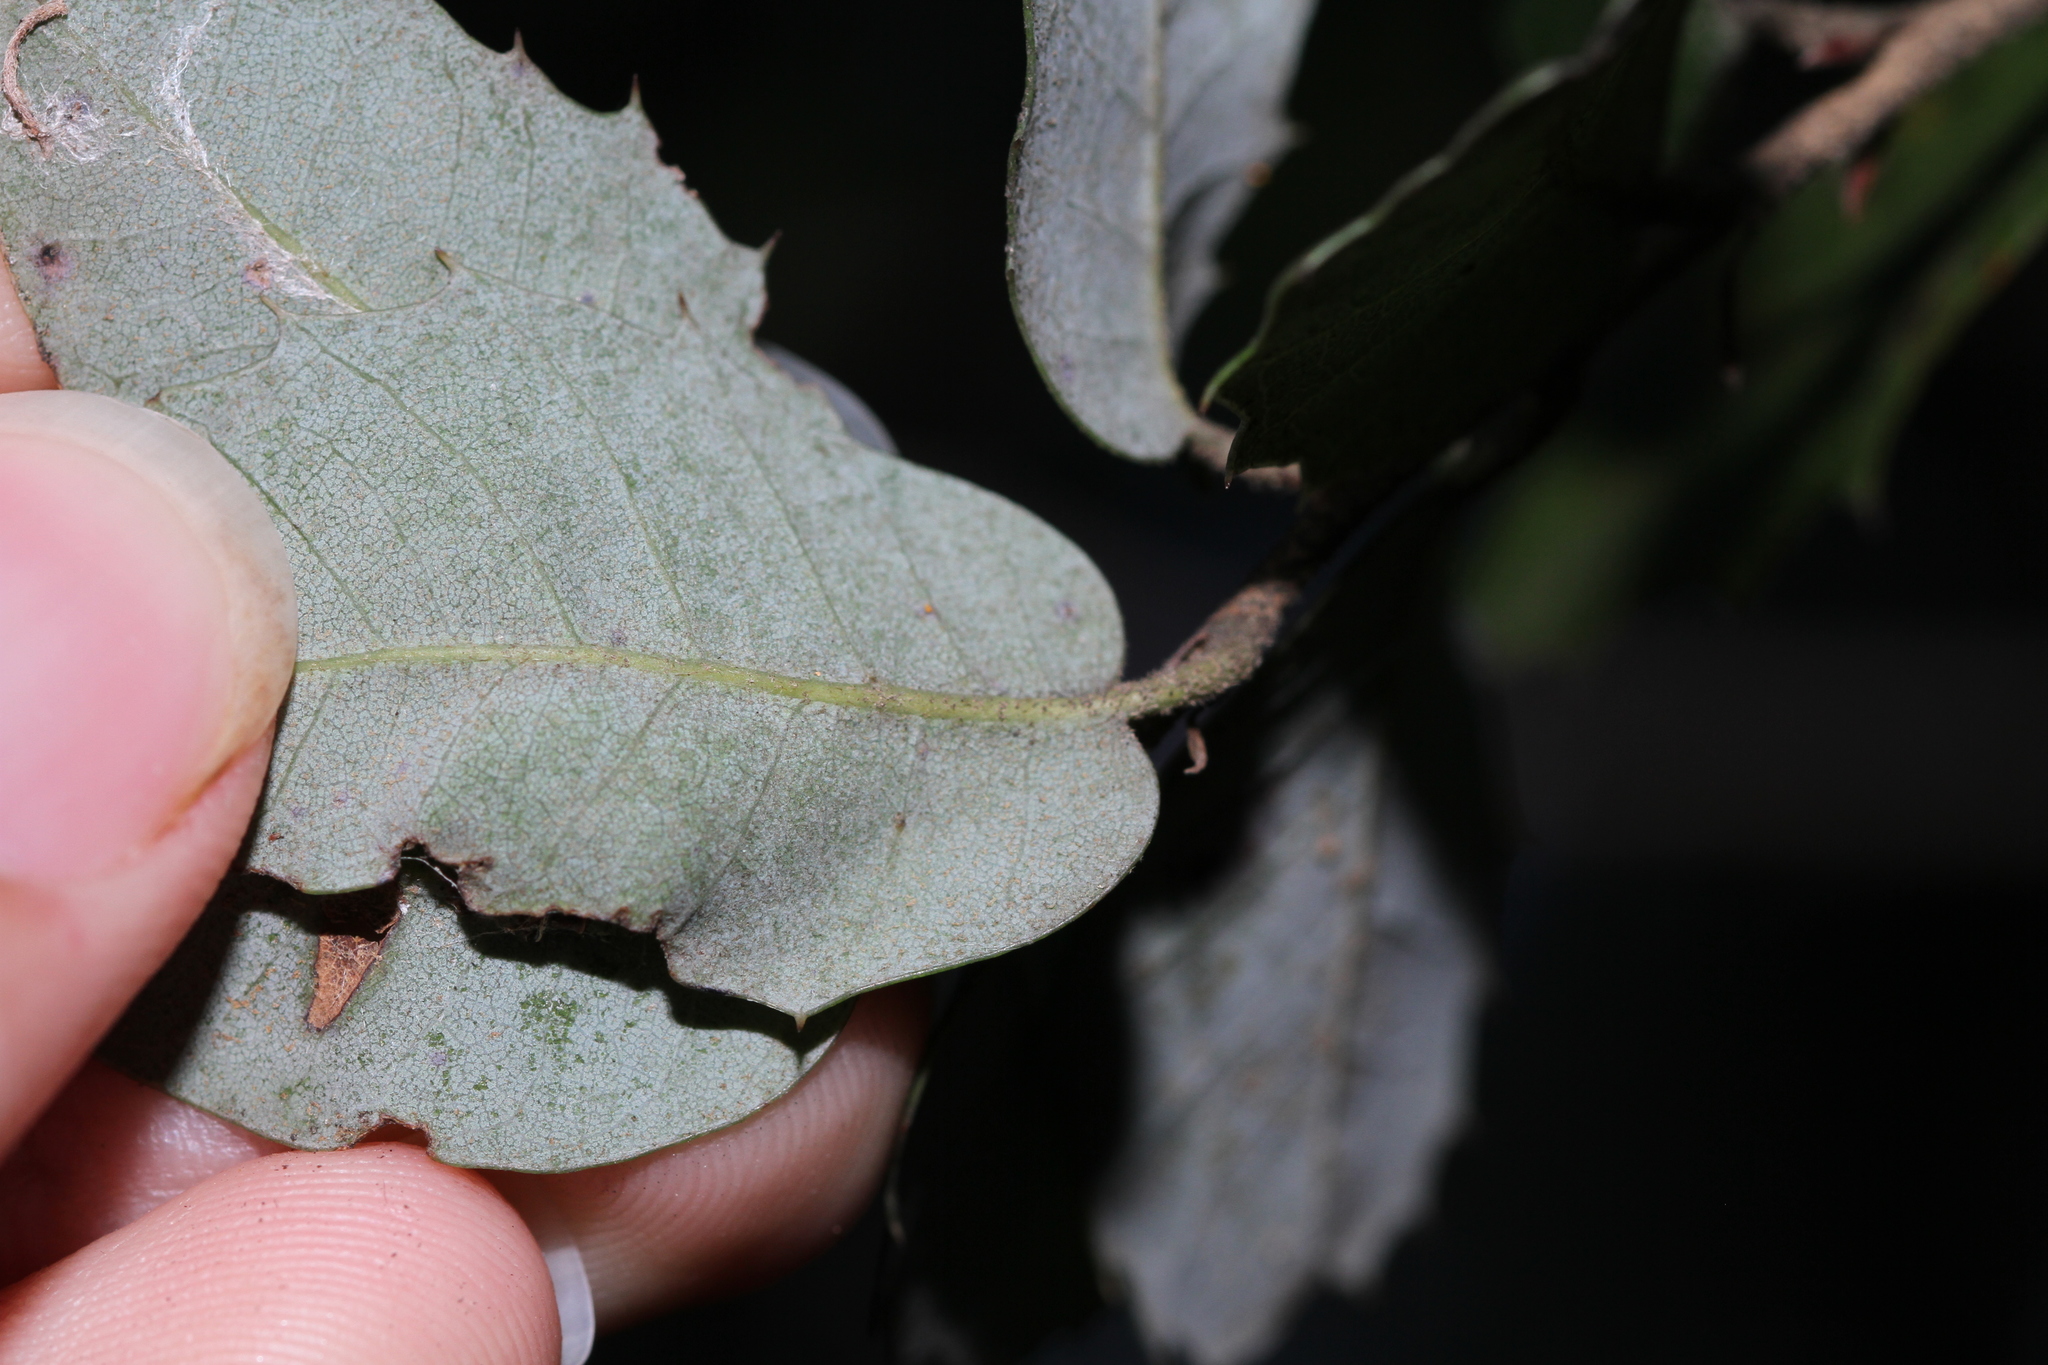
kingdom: Plantae
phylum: Tracheophyta
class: Magnoliopsida
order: Fagales
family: Fagaceae
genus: Quercus
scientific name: Quercus chrysolepis
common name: Canyon live oak
